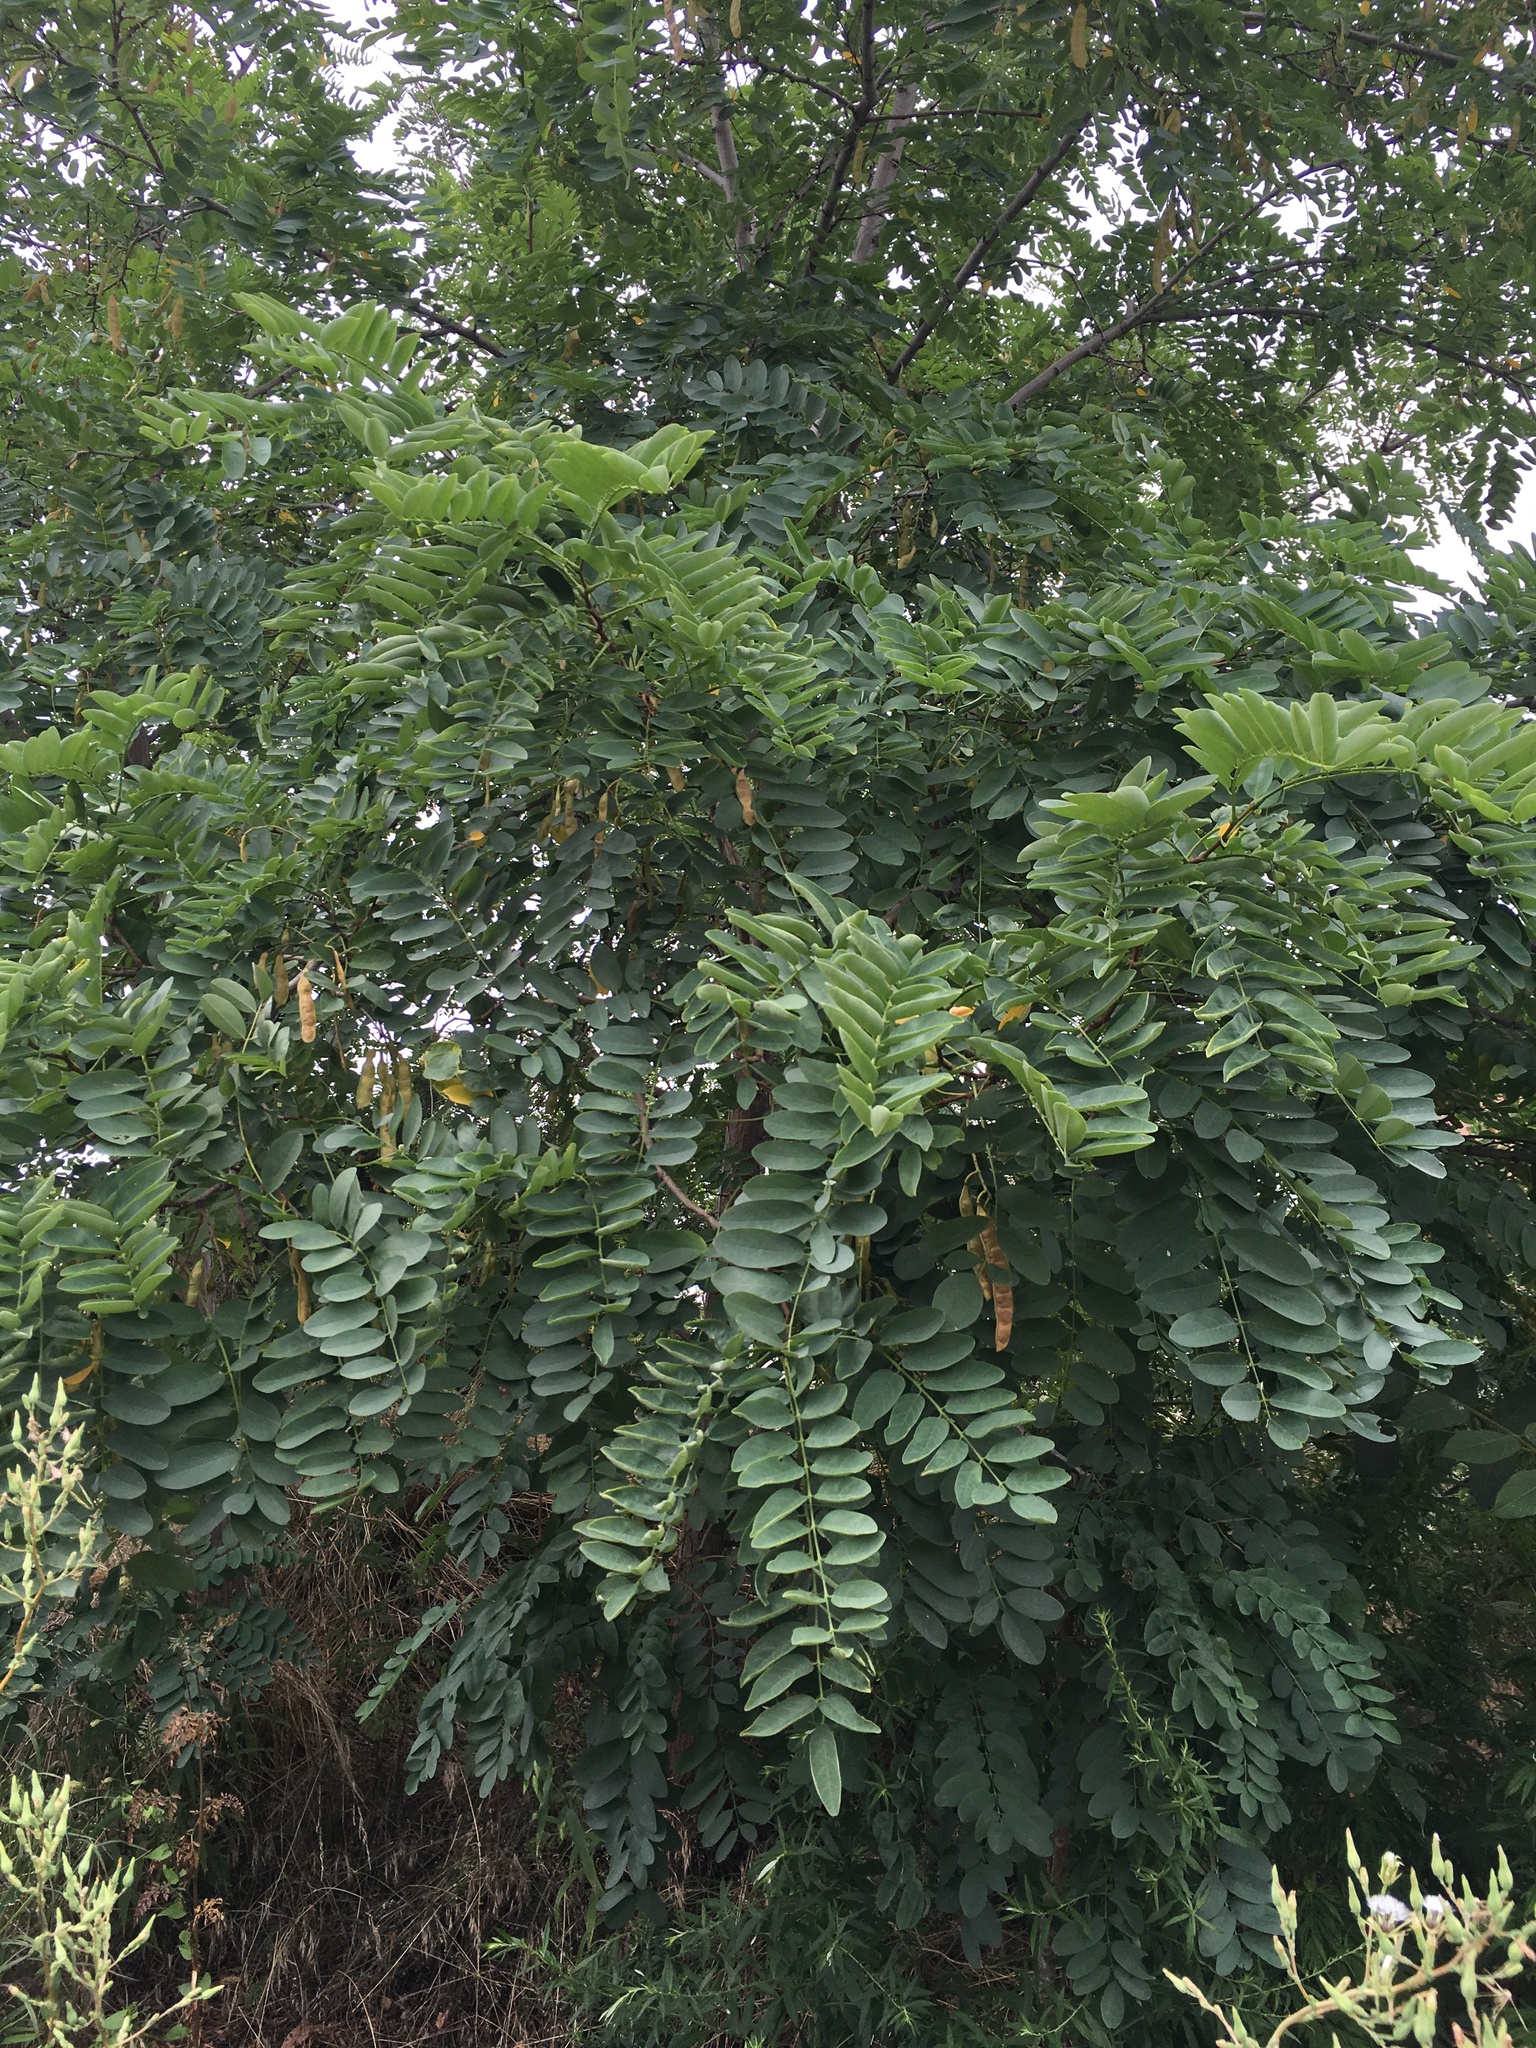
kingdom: Plantae
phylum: Tracheophyta
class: Magnoliopsida
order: Fabales
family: Fabaceae
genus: Robinia
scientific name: Robinia pseudoacacia
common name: Black locust
